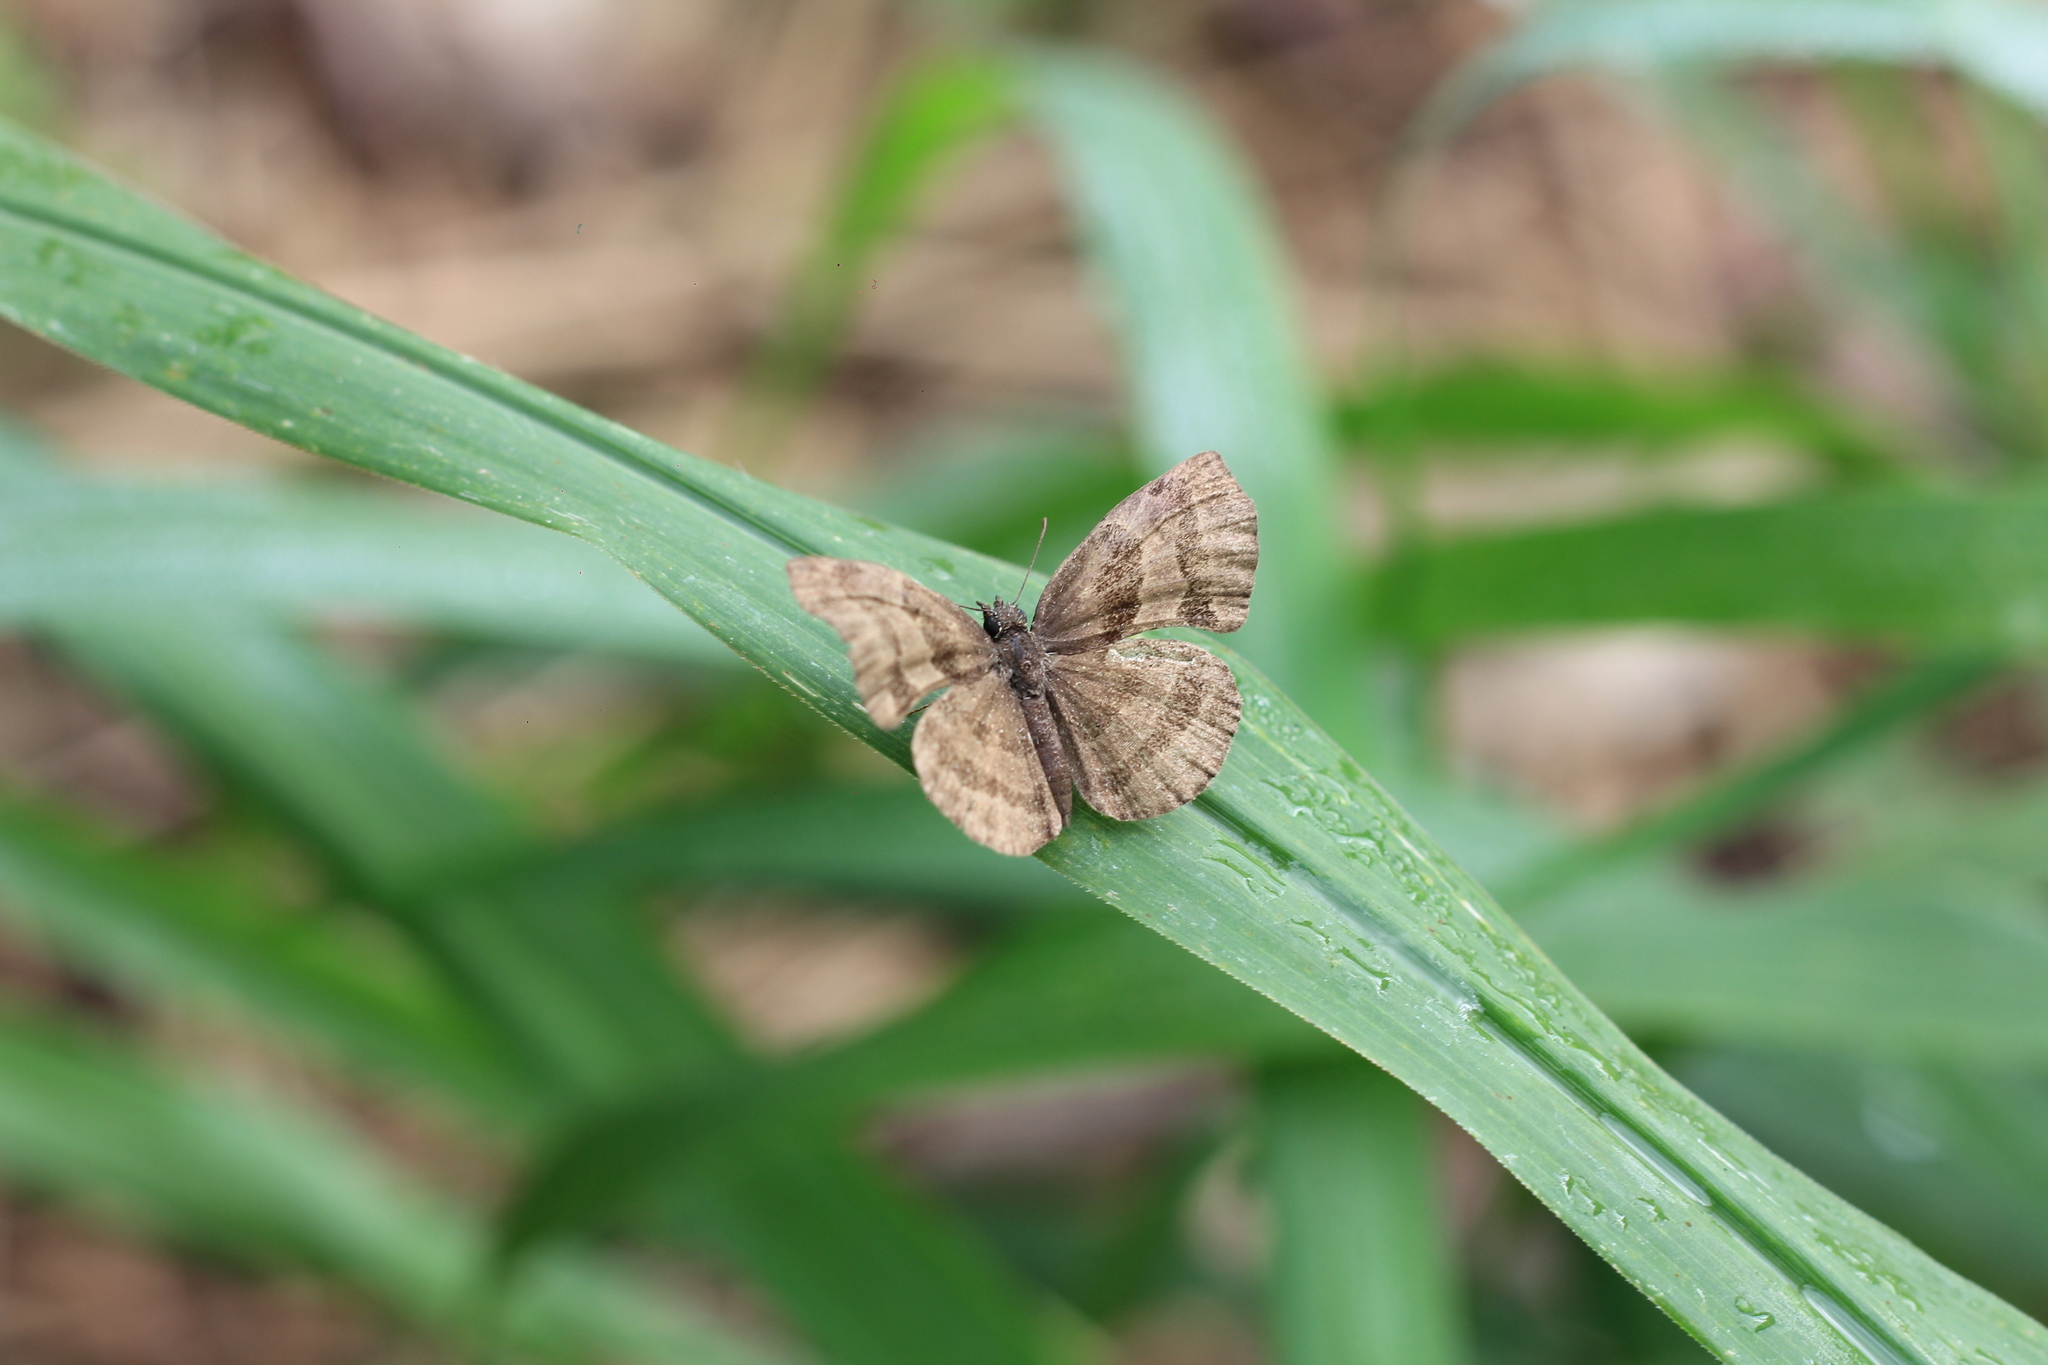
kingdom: Animalia
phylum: Arthropoda
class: Insecta
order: Lepidoptera
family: Hesperiidae
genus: Trina
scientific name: Trina geometrina
